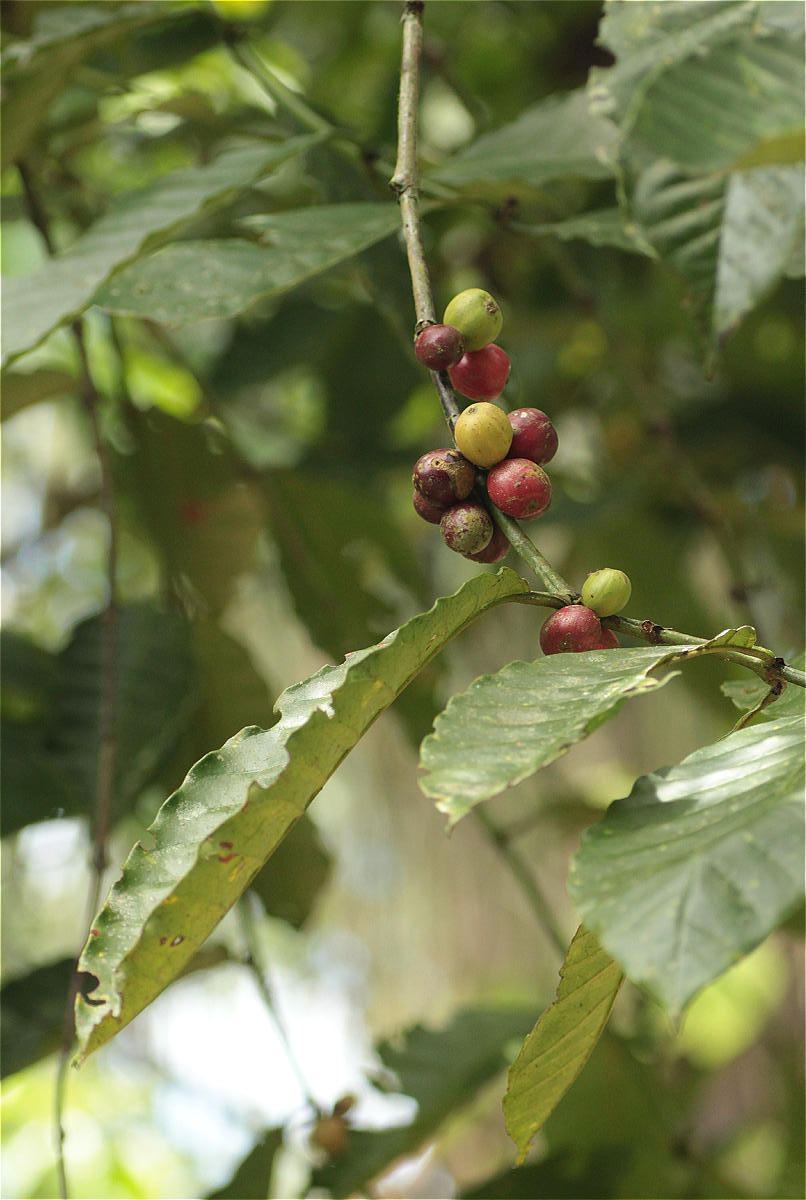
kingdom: Plantae
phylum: Tracheophyta
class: Magnoliopsida
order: Gentianales
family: Rubiaceae
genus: Coffea
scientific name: Coffea arabica
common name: Coffee
